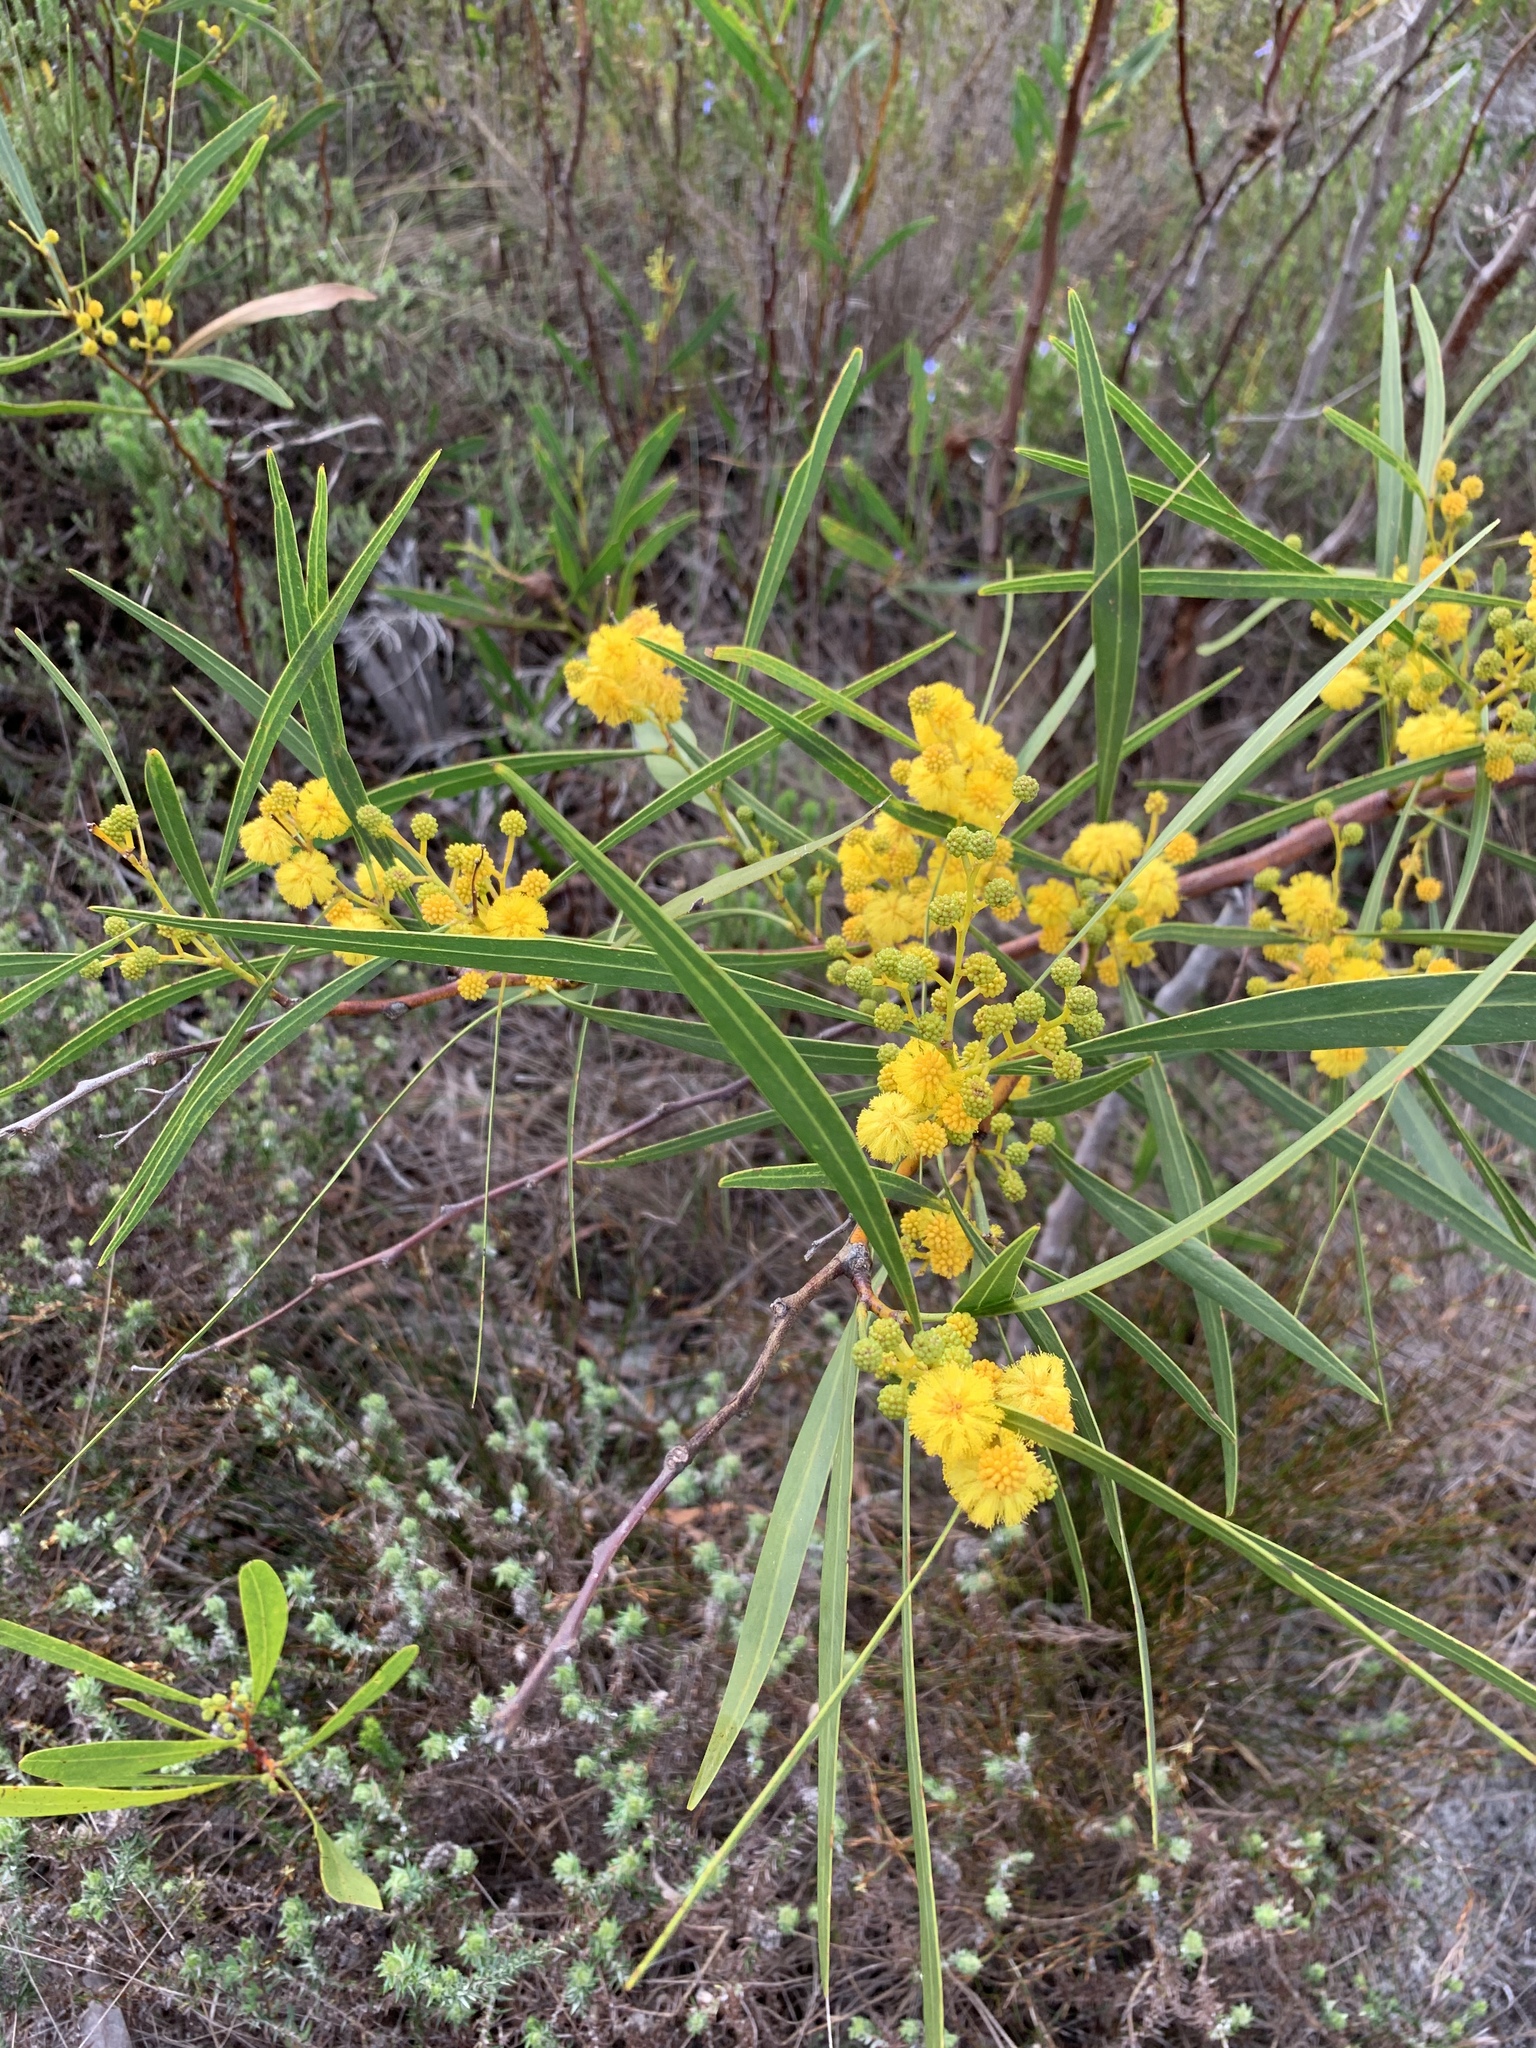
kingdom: Plantae
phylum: Tracheophyta
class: Magnoliopsida
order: Fabales
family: Fabaceae
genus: Acacia
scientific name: Acacia saligna
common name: Orange wattle
